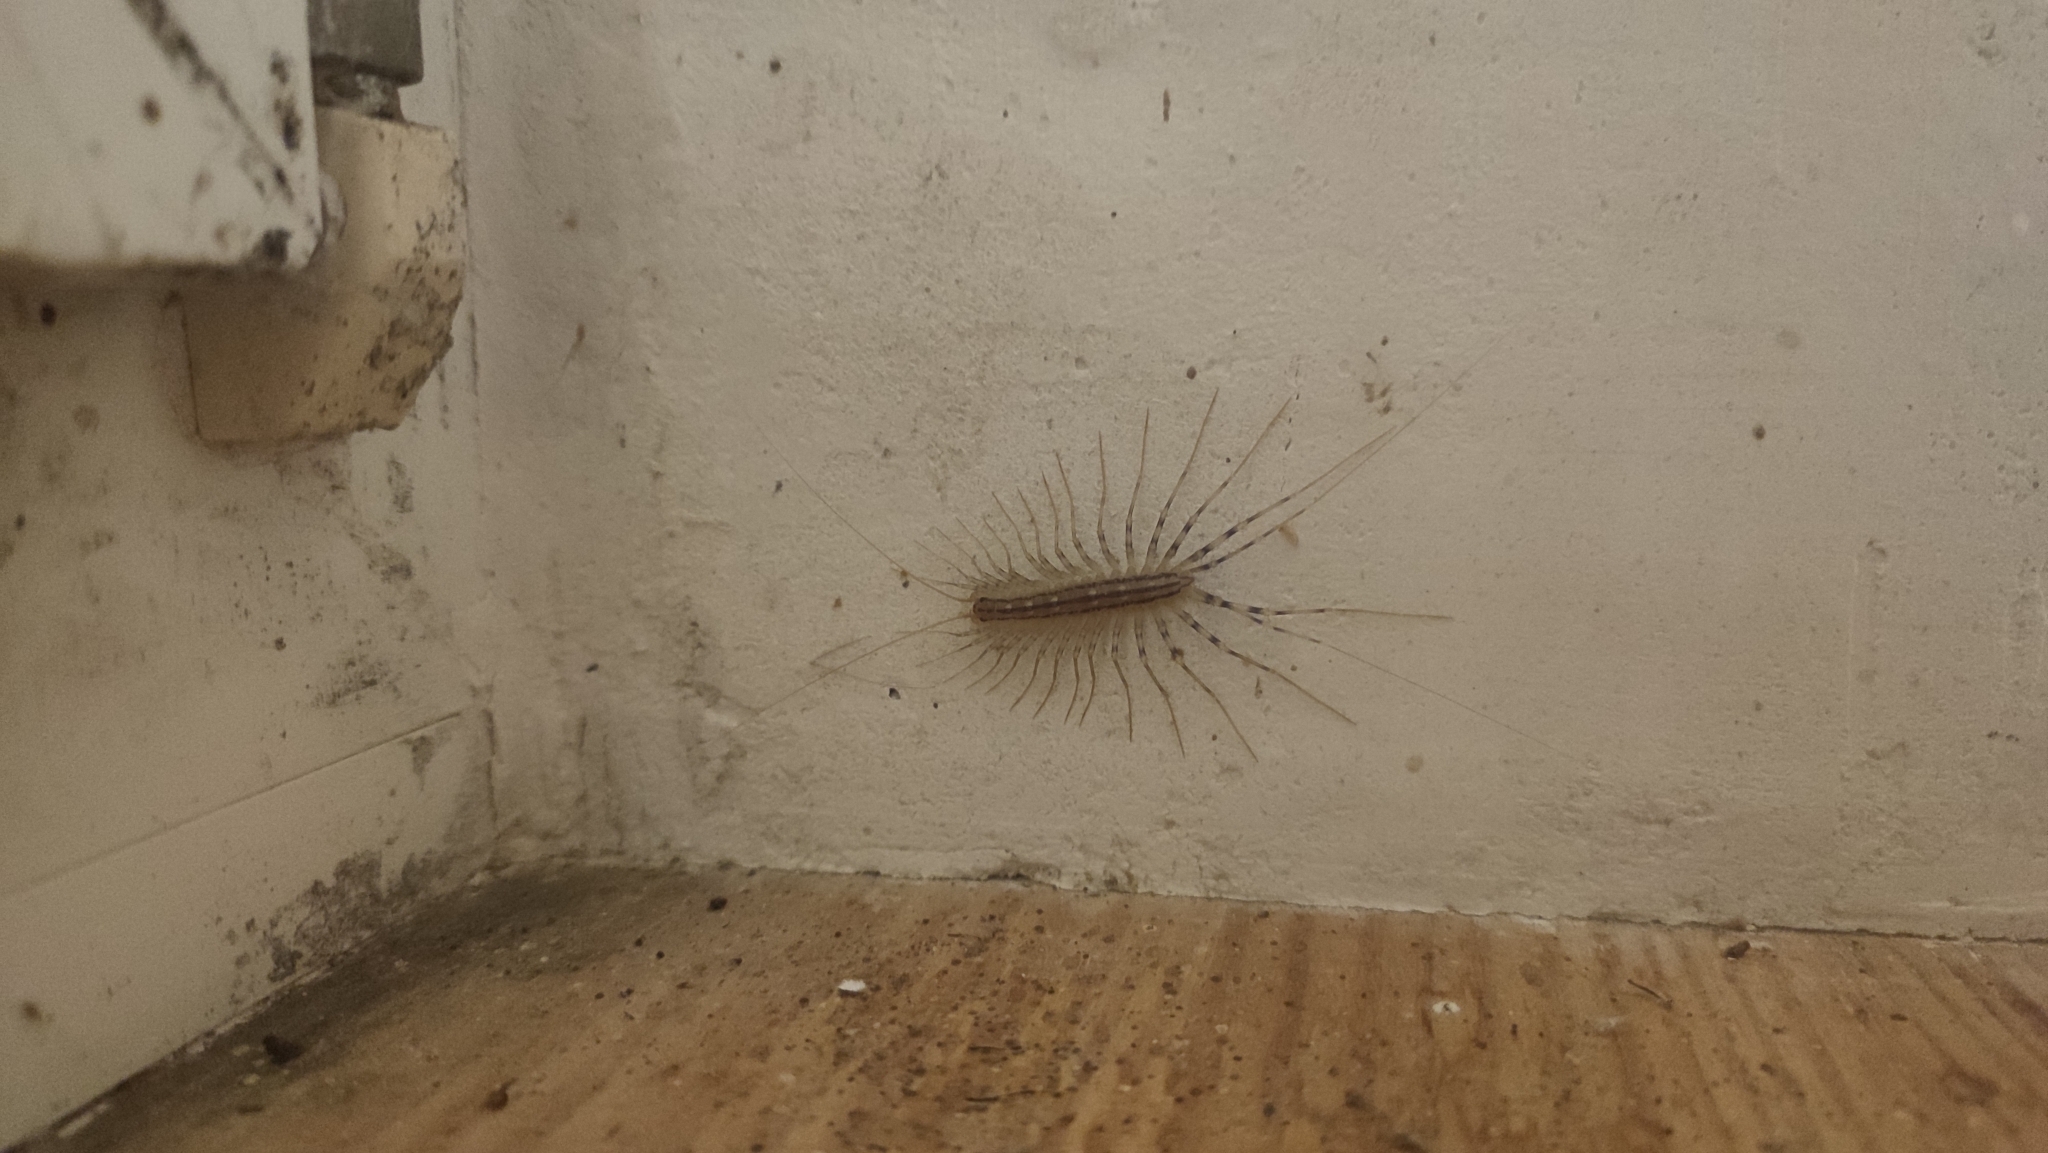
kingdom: Animalia
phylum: Arthropoda
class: Chilopoda
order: Scutigeromorpha
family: Scutigeridae
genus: Scutigera
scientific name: Scutigera coleoptrata
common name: House centipede
